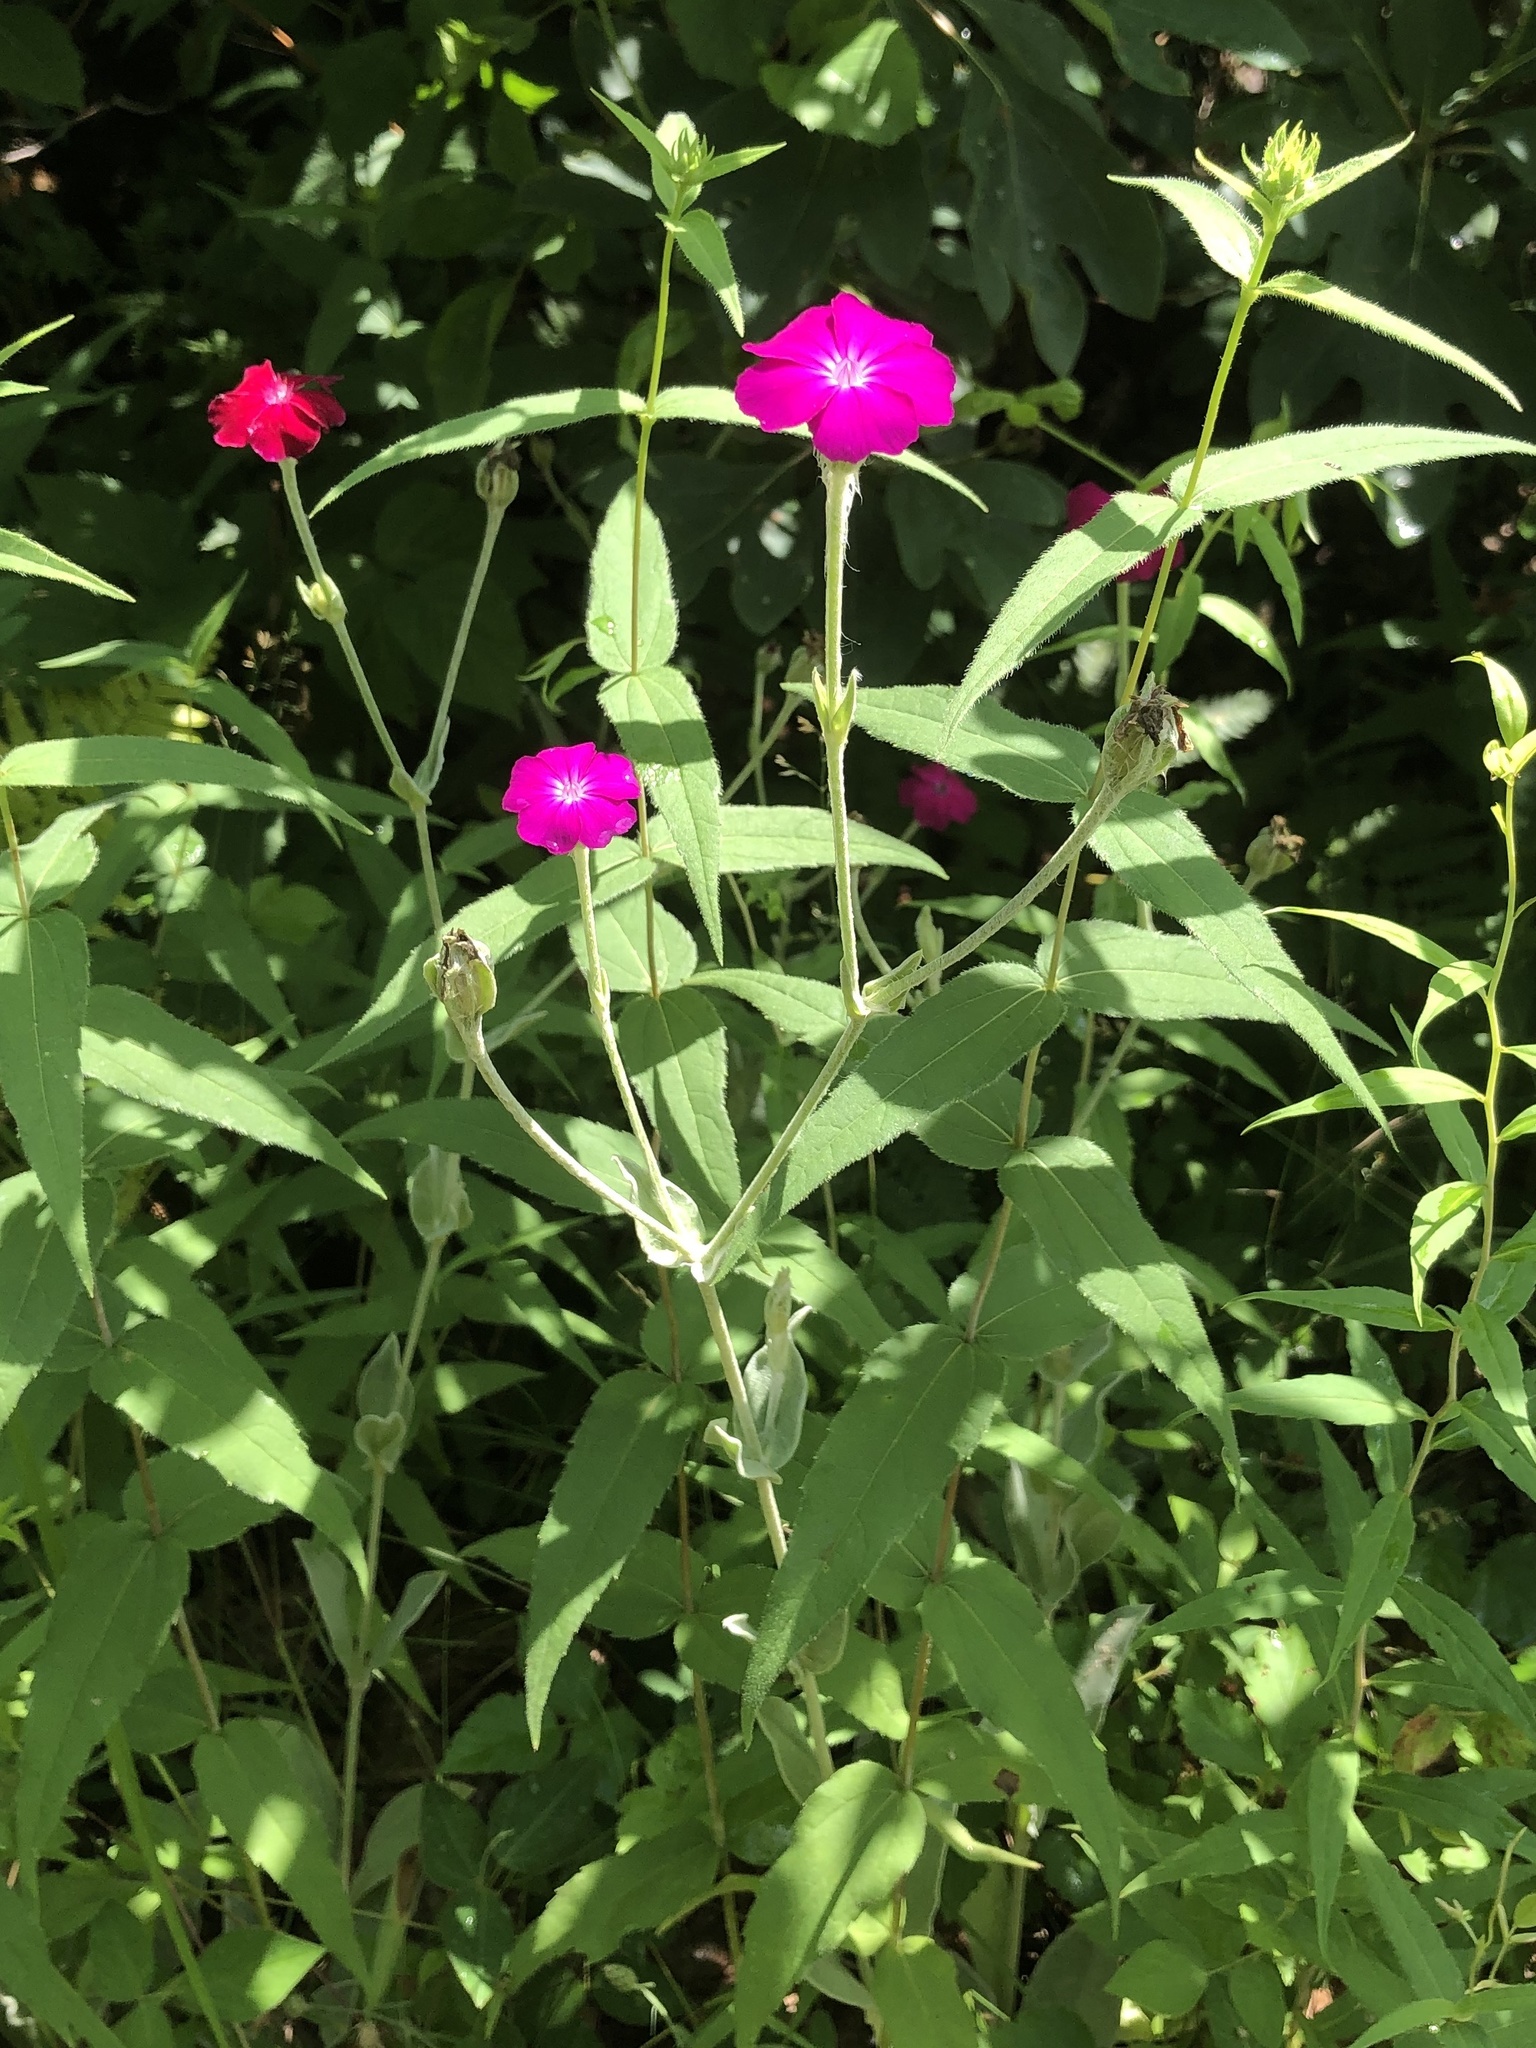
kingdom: Plantae
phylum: Tracheophyta
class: Magnoliopsida
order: Caryophyllales
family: Caryophyllaceae
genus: Silene
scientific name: Silene coronaria
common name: Rose campion
